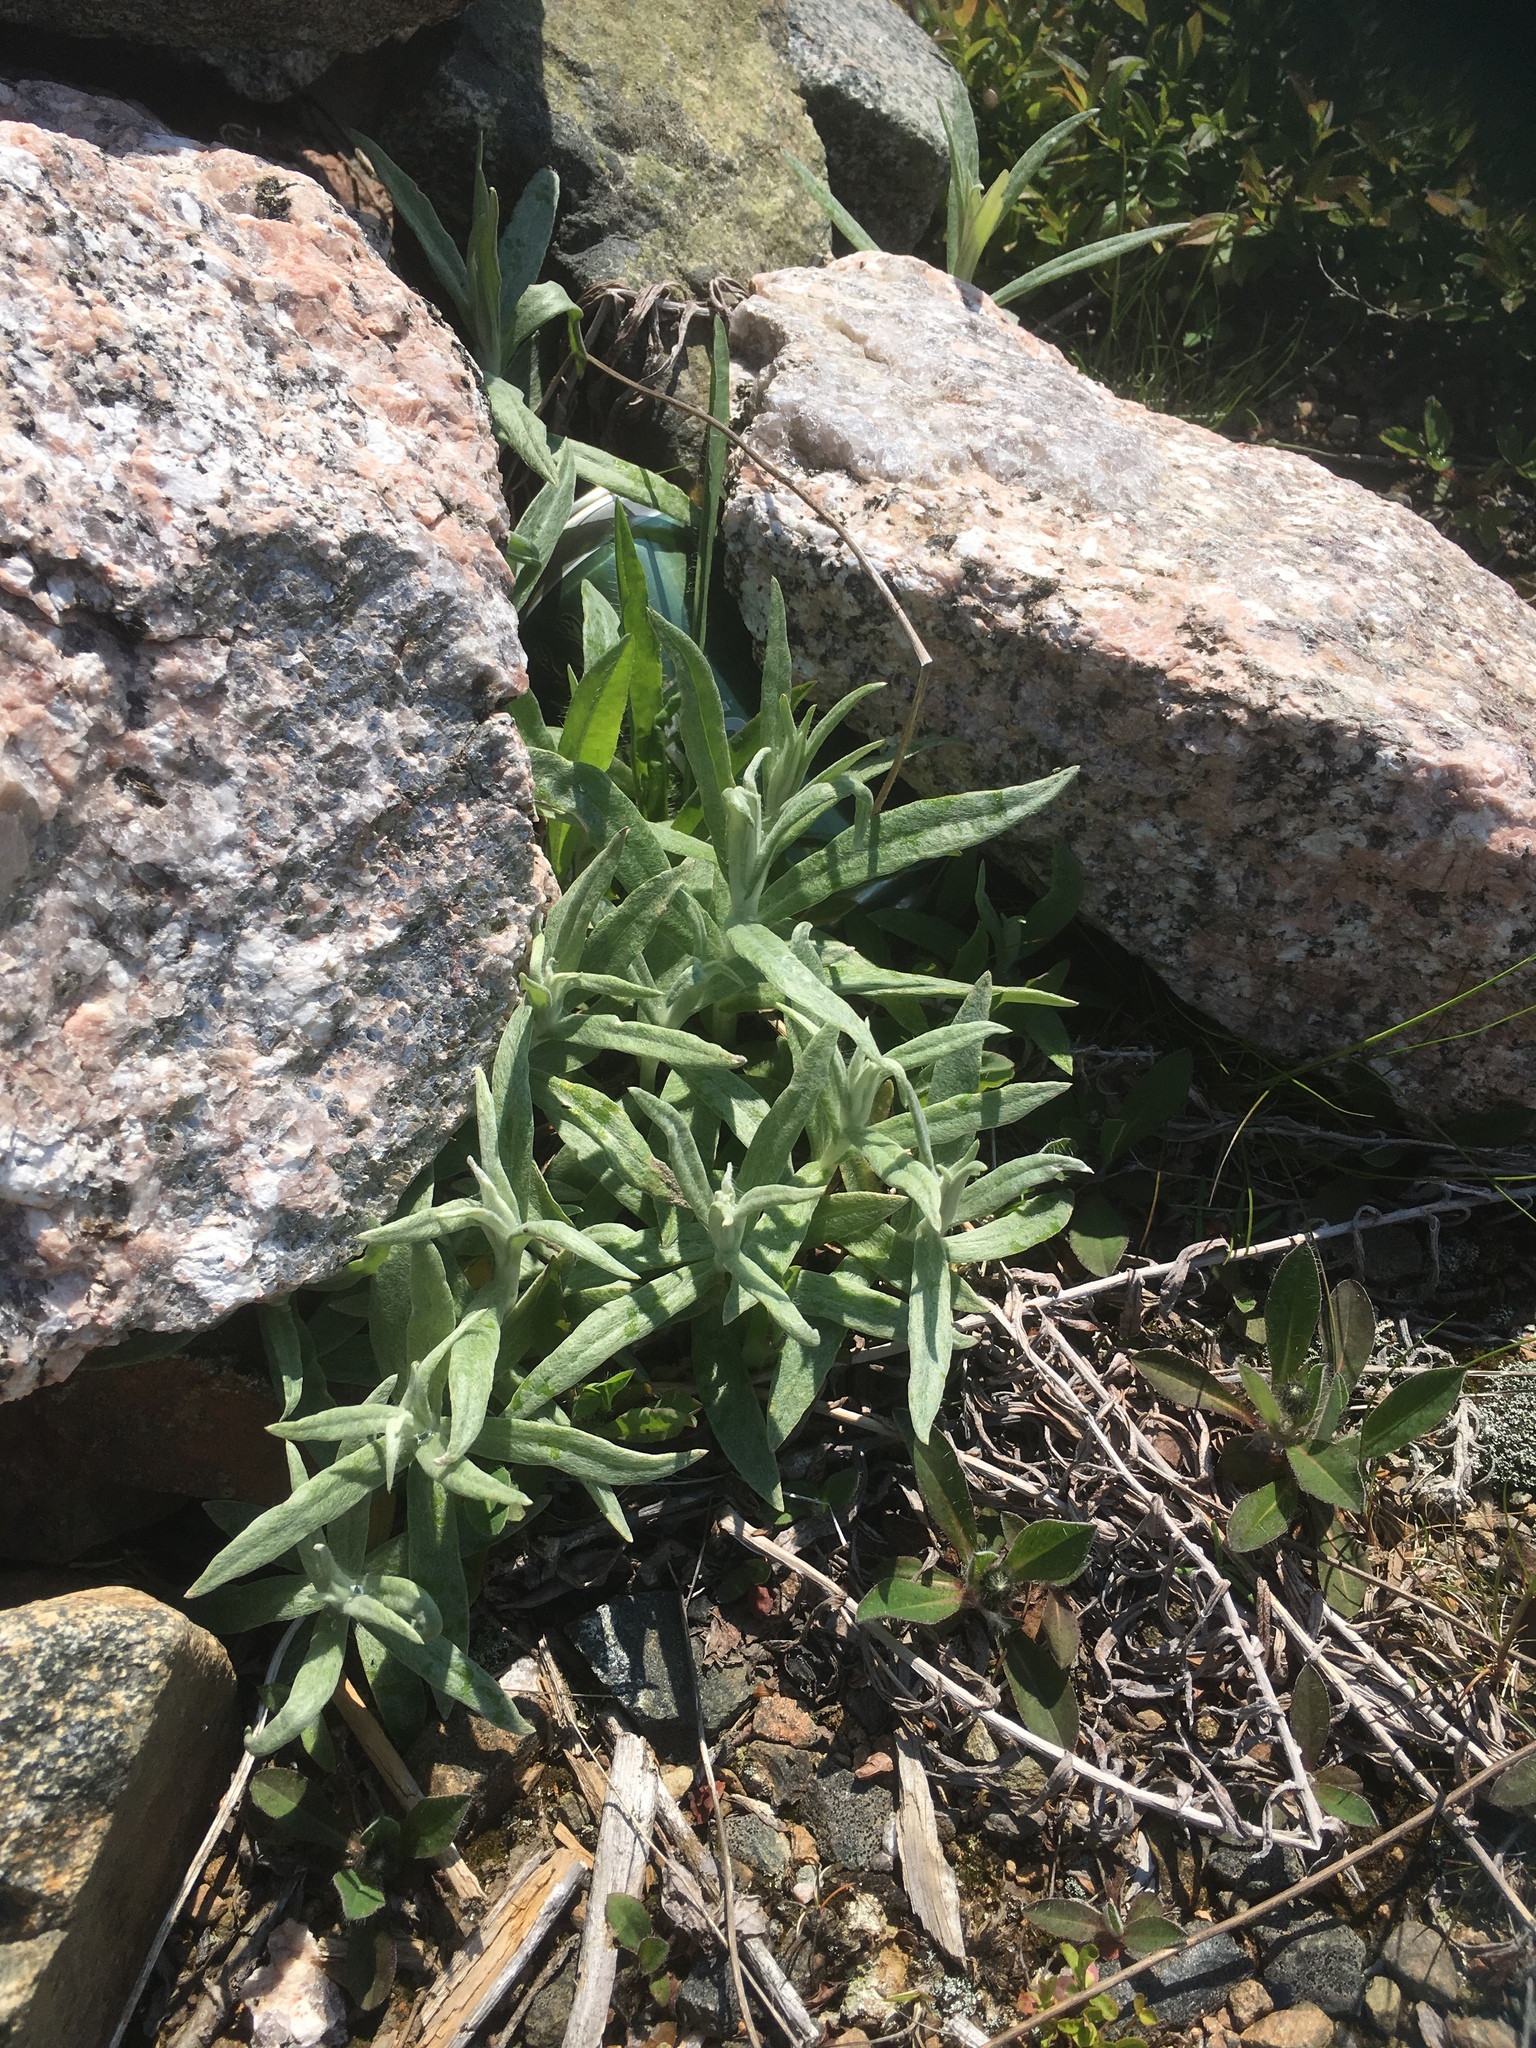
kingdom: Plantae
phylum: Tracheophyta
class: Magnoliopsida
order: Asterales
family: Asteraceae
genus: Anaphalis
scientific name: Anaphalis margaritacea
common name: Pearly everlasting
